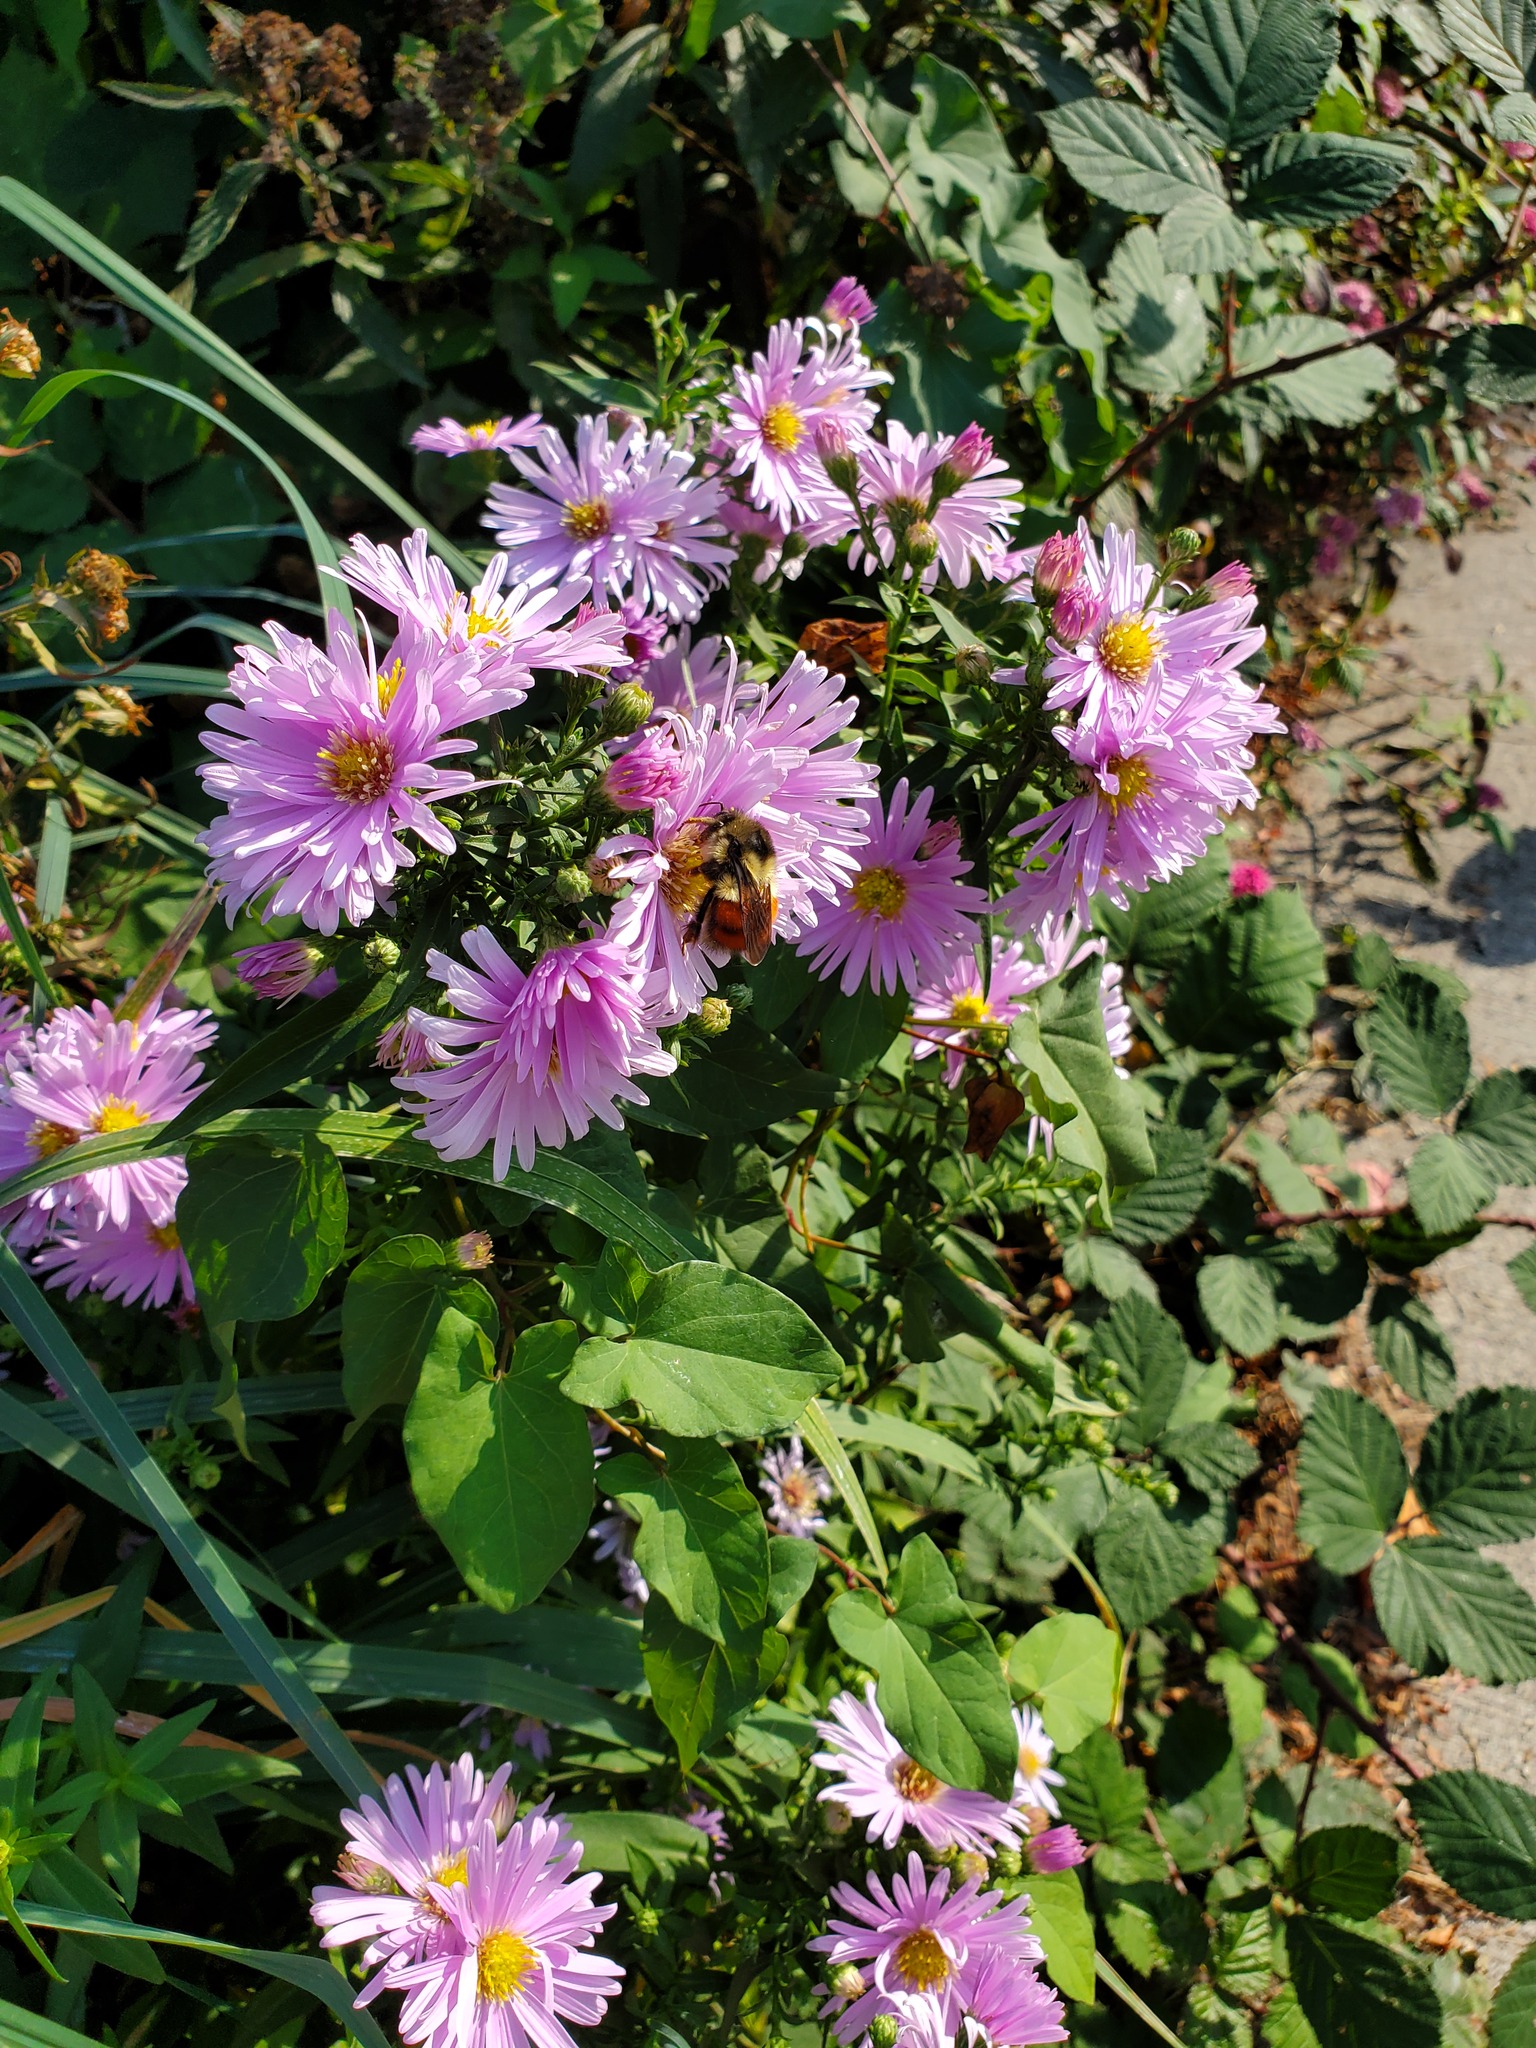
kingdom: Animalia
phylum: Arthropoda
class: Insecta
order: Hymenoptera
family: Apidae
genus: Bombus
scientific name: Bombus melanopygus
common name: Black tail bumble bee
